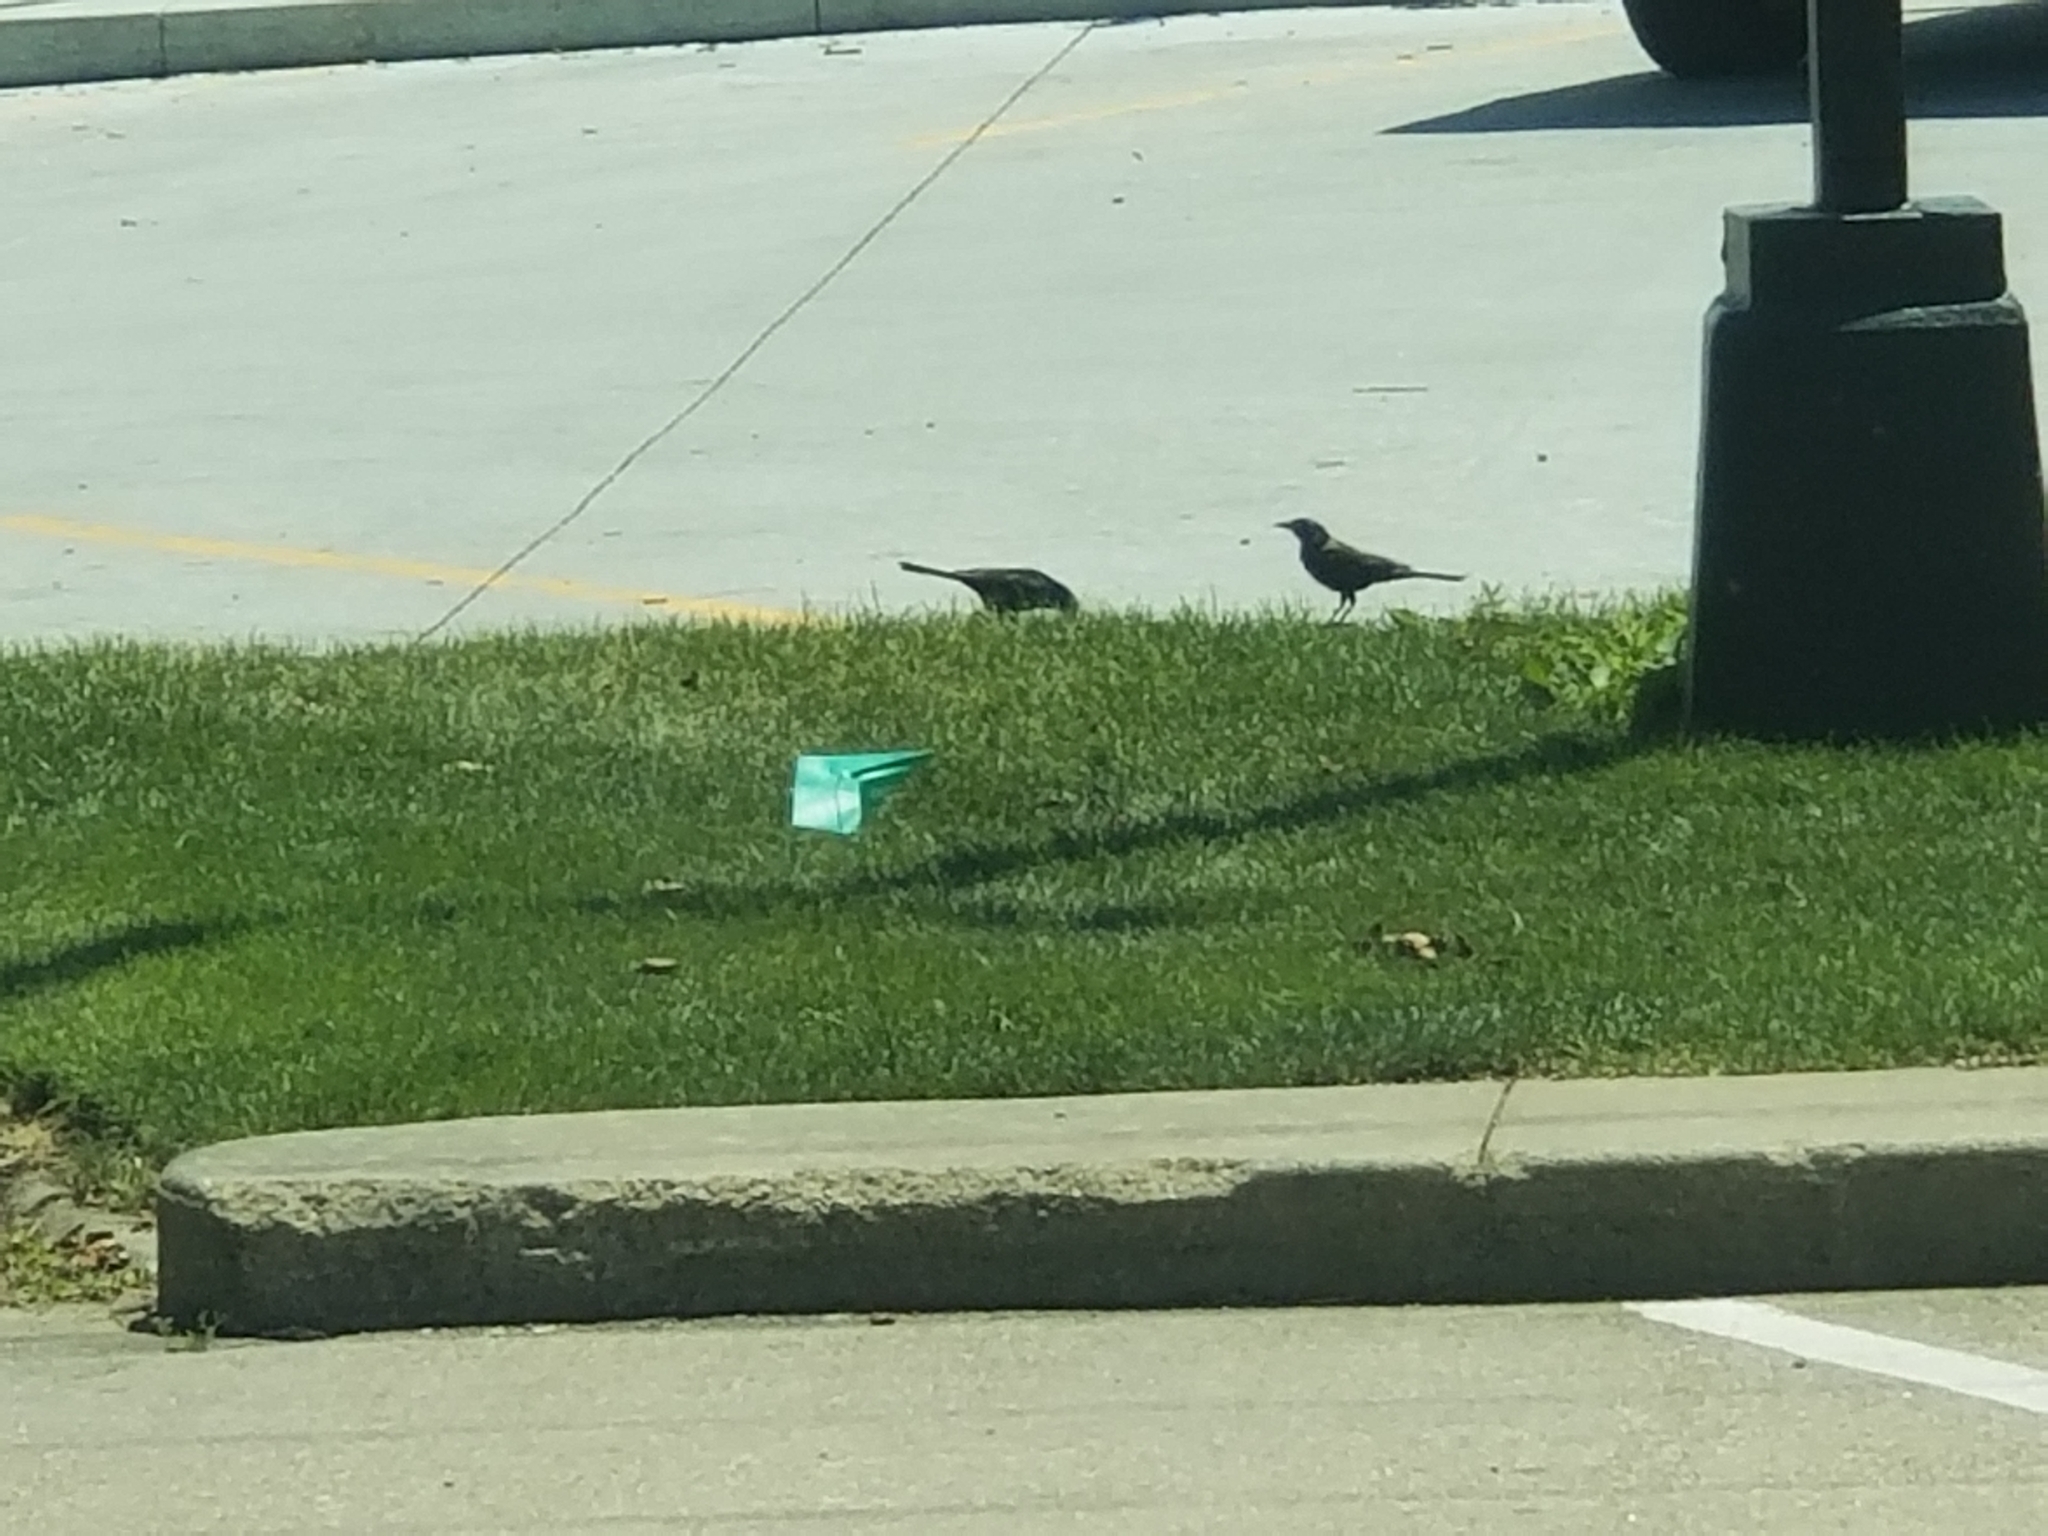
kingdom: Animalia
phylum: Chordata
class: Aves
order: Passeriformes
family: Icteridae
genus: Quiscalus
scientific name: Quiscalus quiscula
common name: Common grackle
